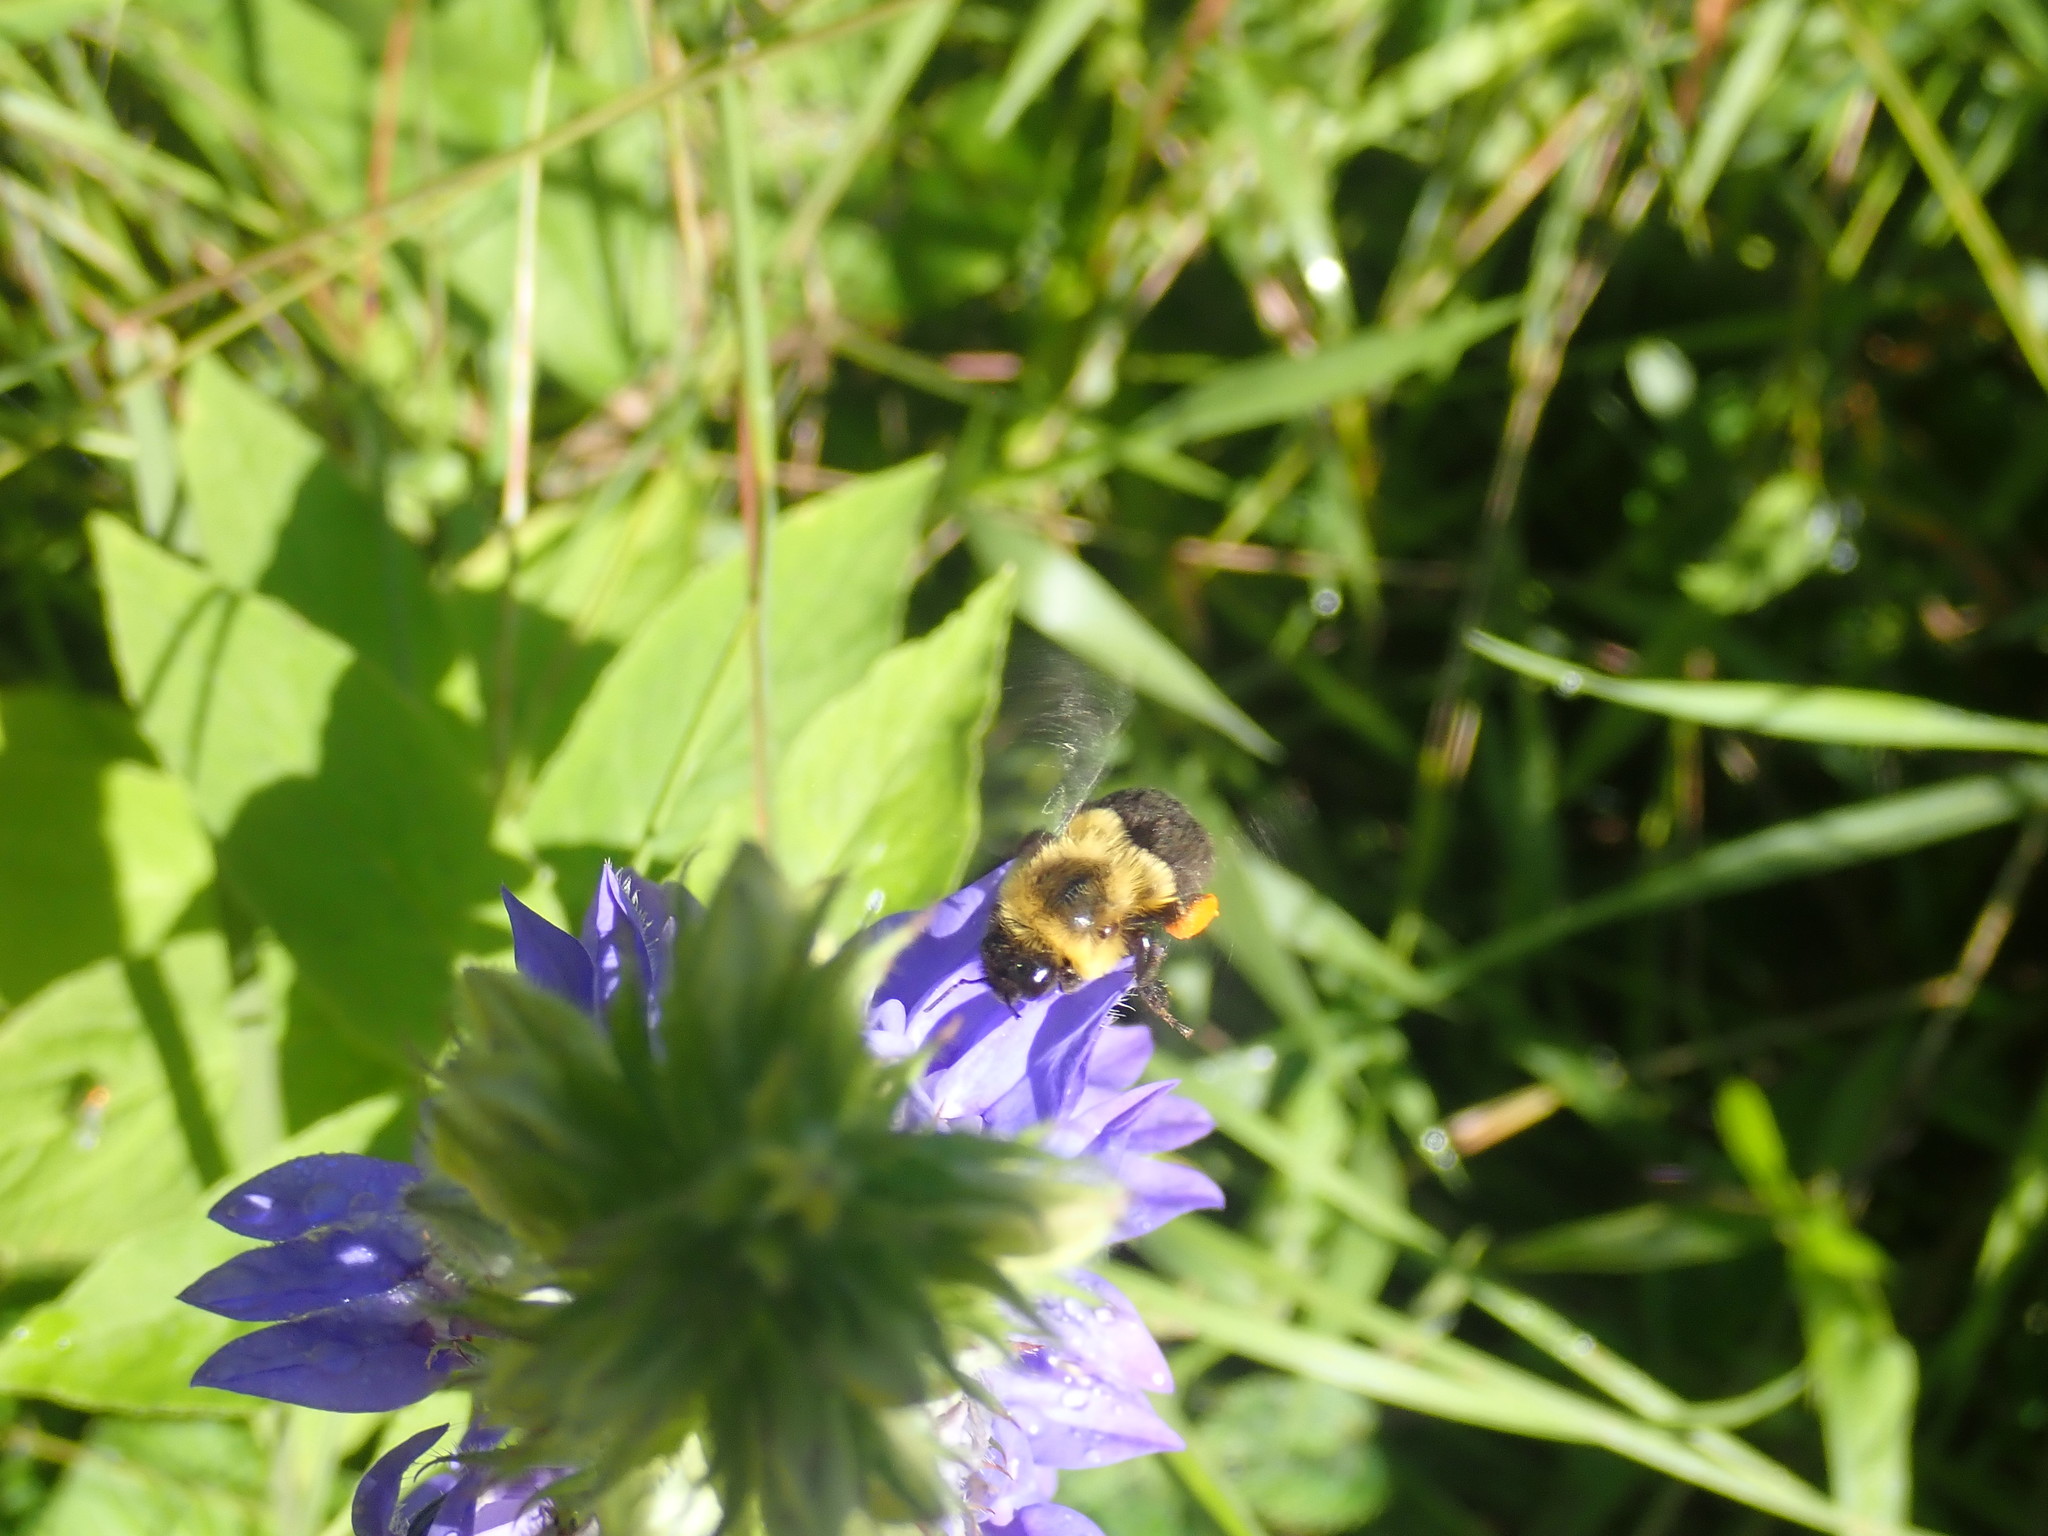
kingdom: Animalia
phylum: Arthropoda
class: Insecta
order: Hymenoptera
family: Apidae
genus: Bombus
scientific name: Bombus impatiens
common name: Common eastern bumble bee
